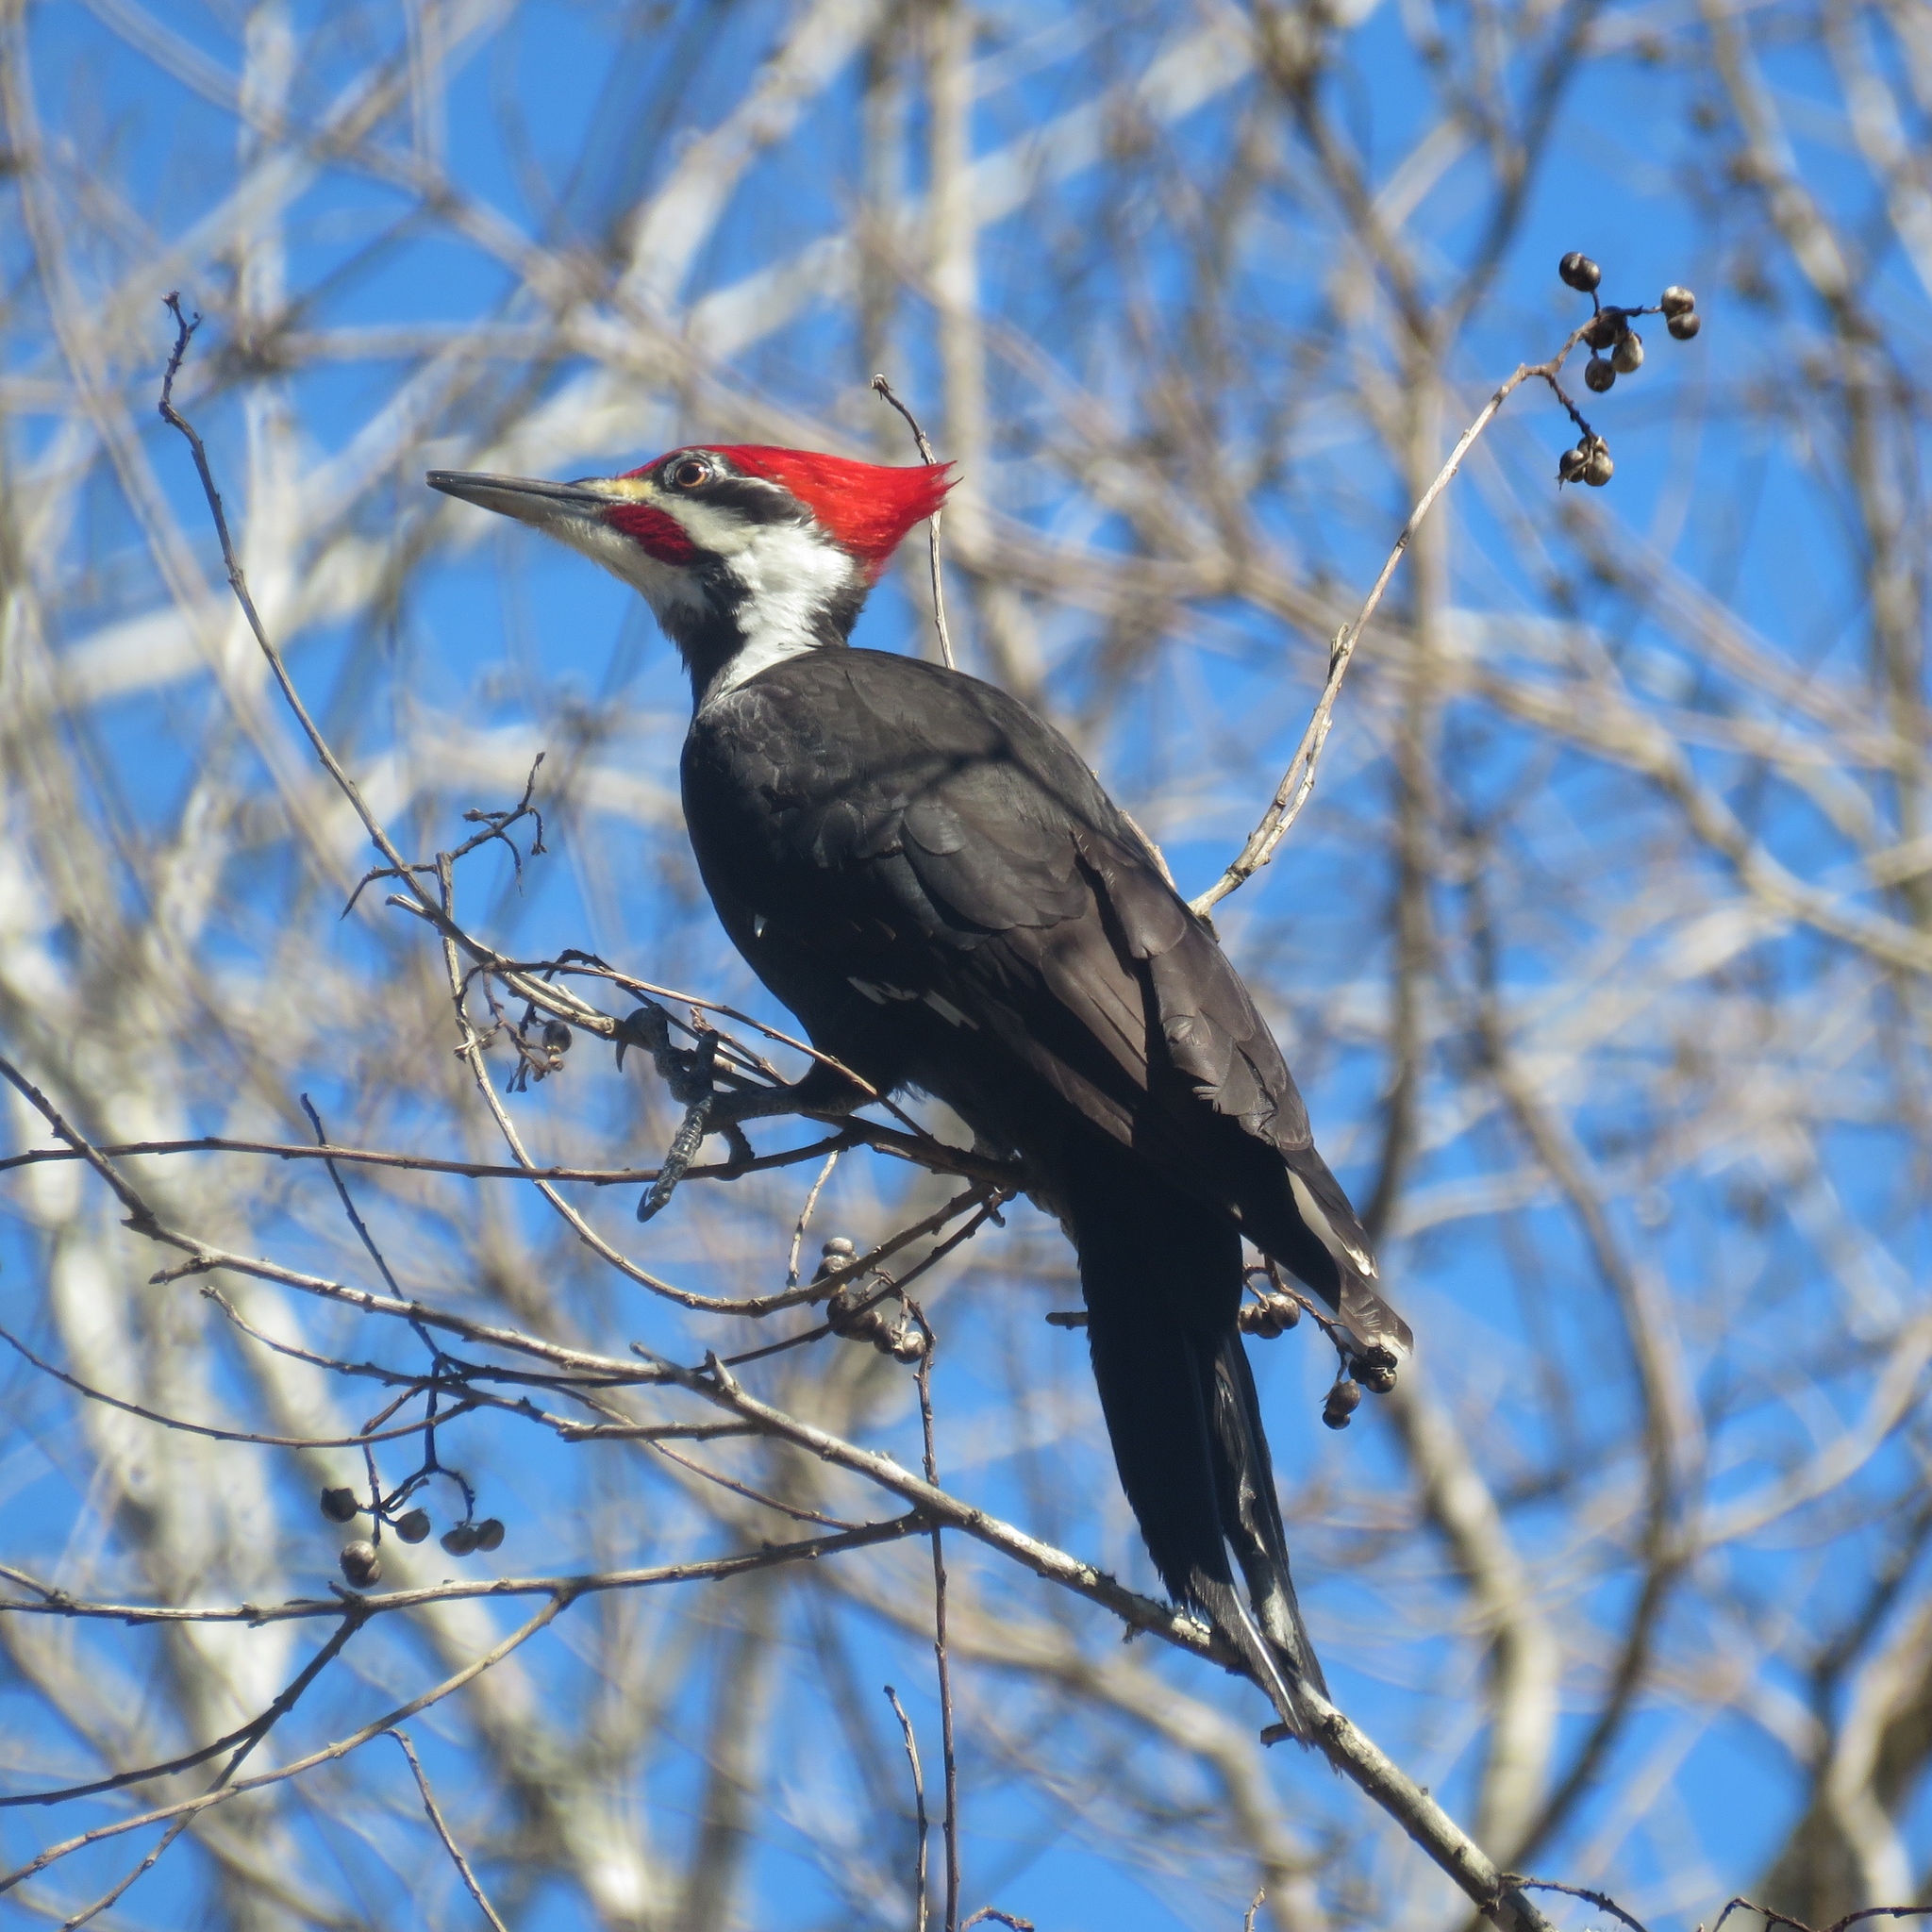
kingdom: Animalia
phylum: Chordata
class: Aves
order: Piciformes
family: Picidae
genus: Dryocopus
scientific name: Dryocopus pileatus
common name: Pileated woodpecker
